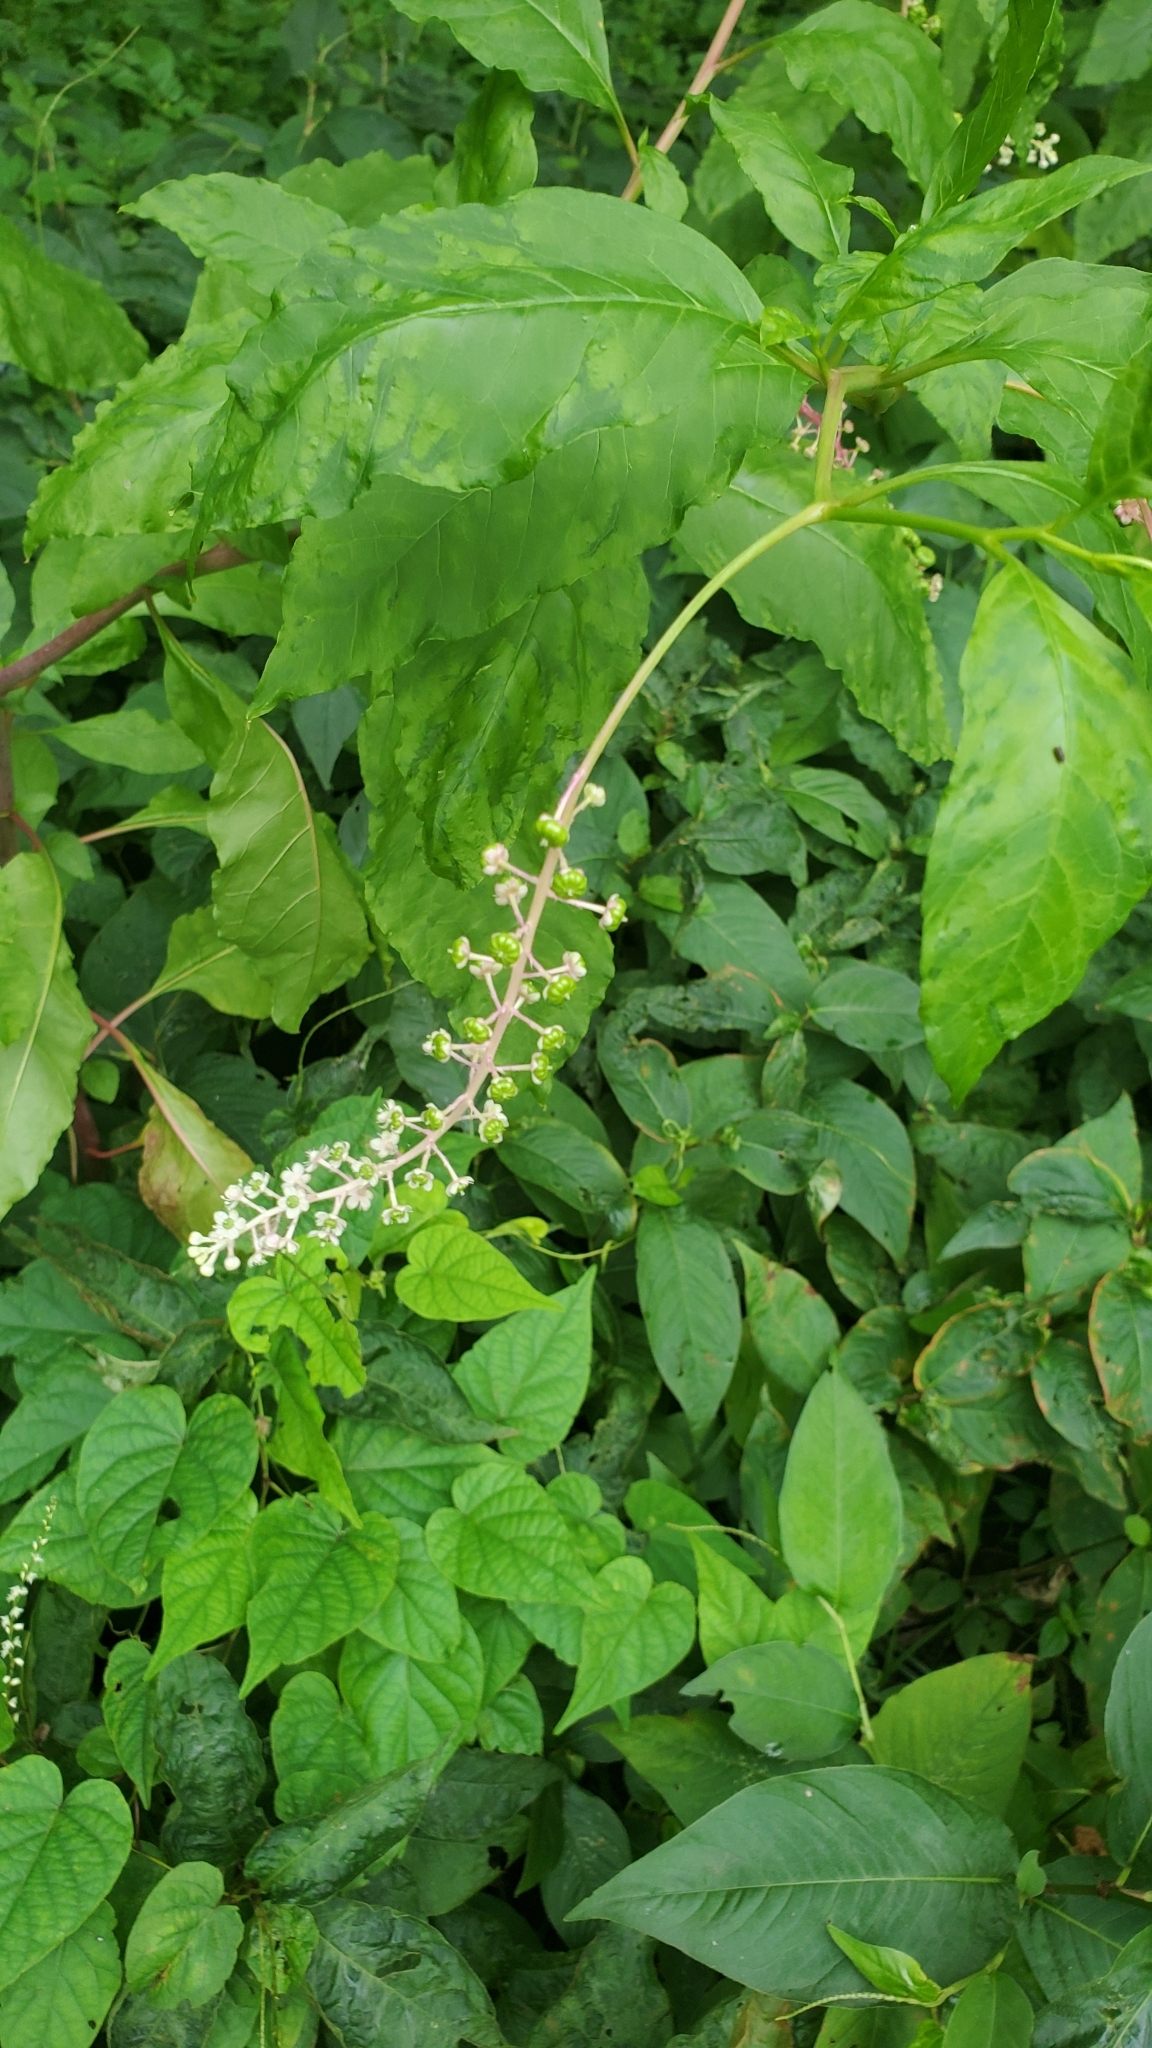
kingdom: Plantae
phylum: Tracheophyta
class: Magnoliopsida
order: Caryophyllales
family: Phytolaccaceae
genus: Phytolacca
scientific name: Phytolacca americana
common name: American pokeweed
